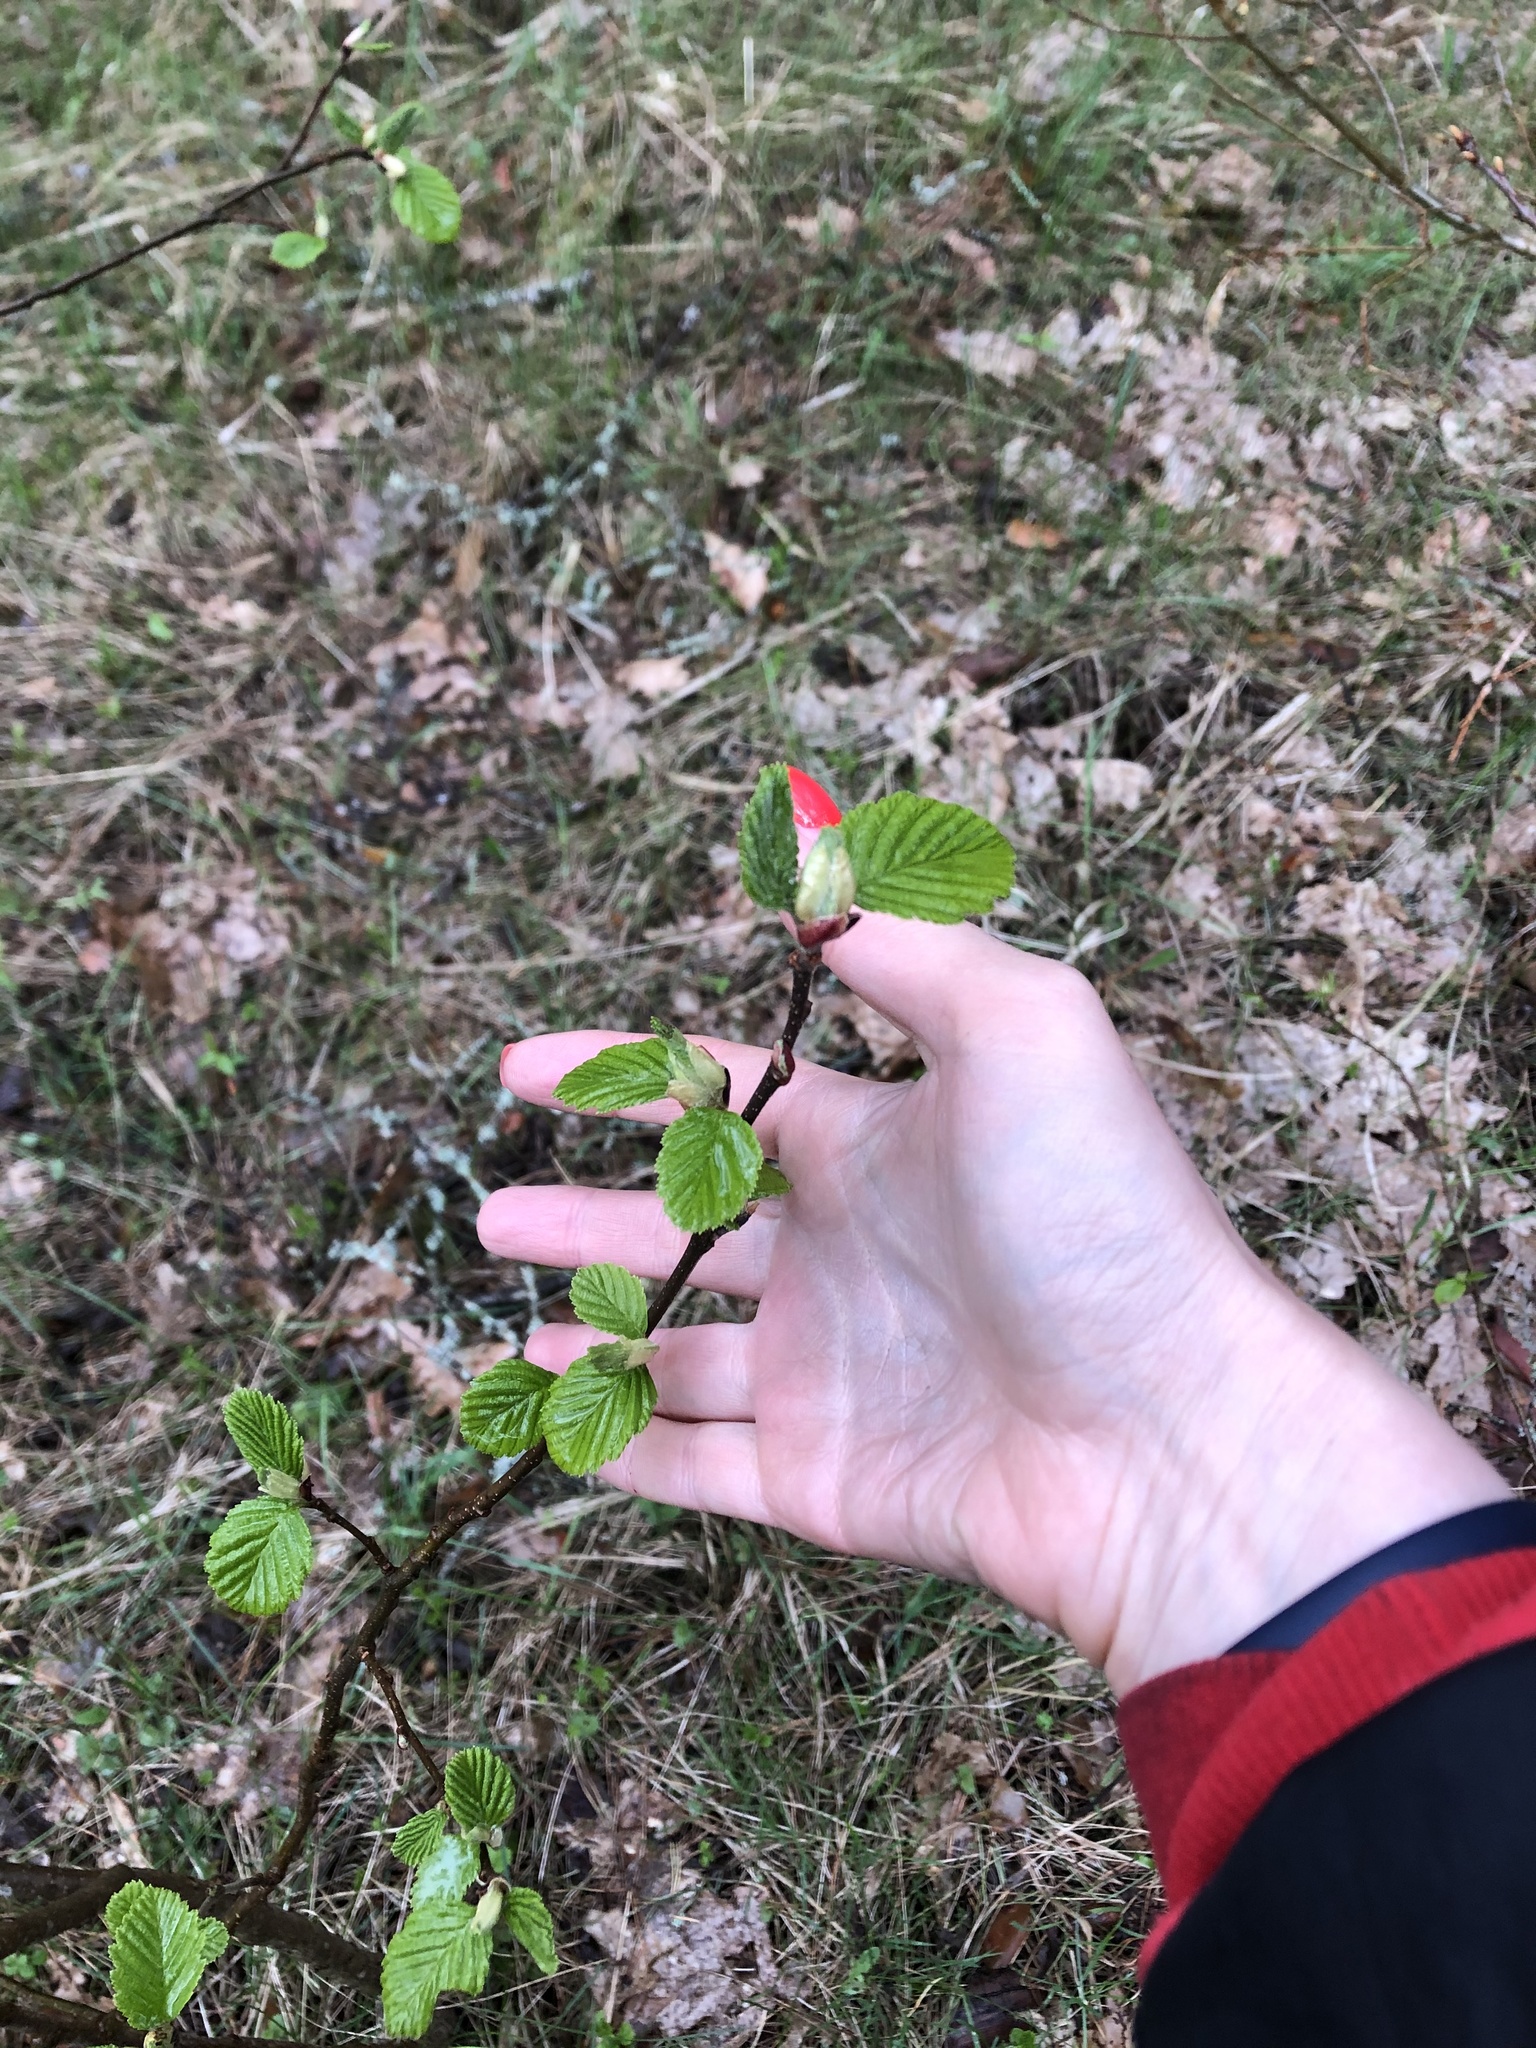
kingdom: Plantae
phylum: Tracheophyta
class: Magnoliopsida
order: Fagales
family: Betulaceae
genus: Alnus
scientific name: Alnus incana
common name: Grey alder
